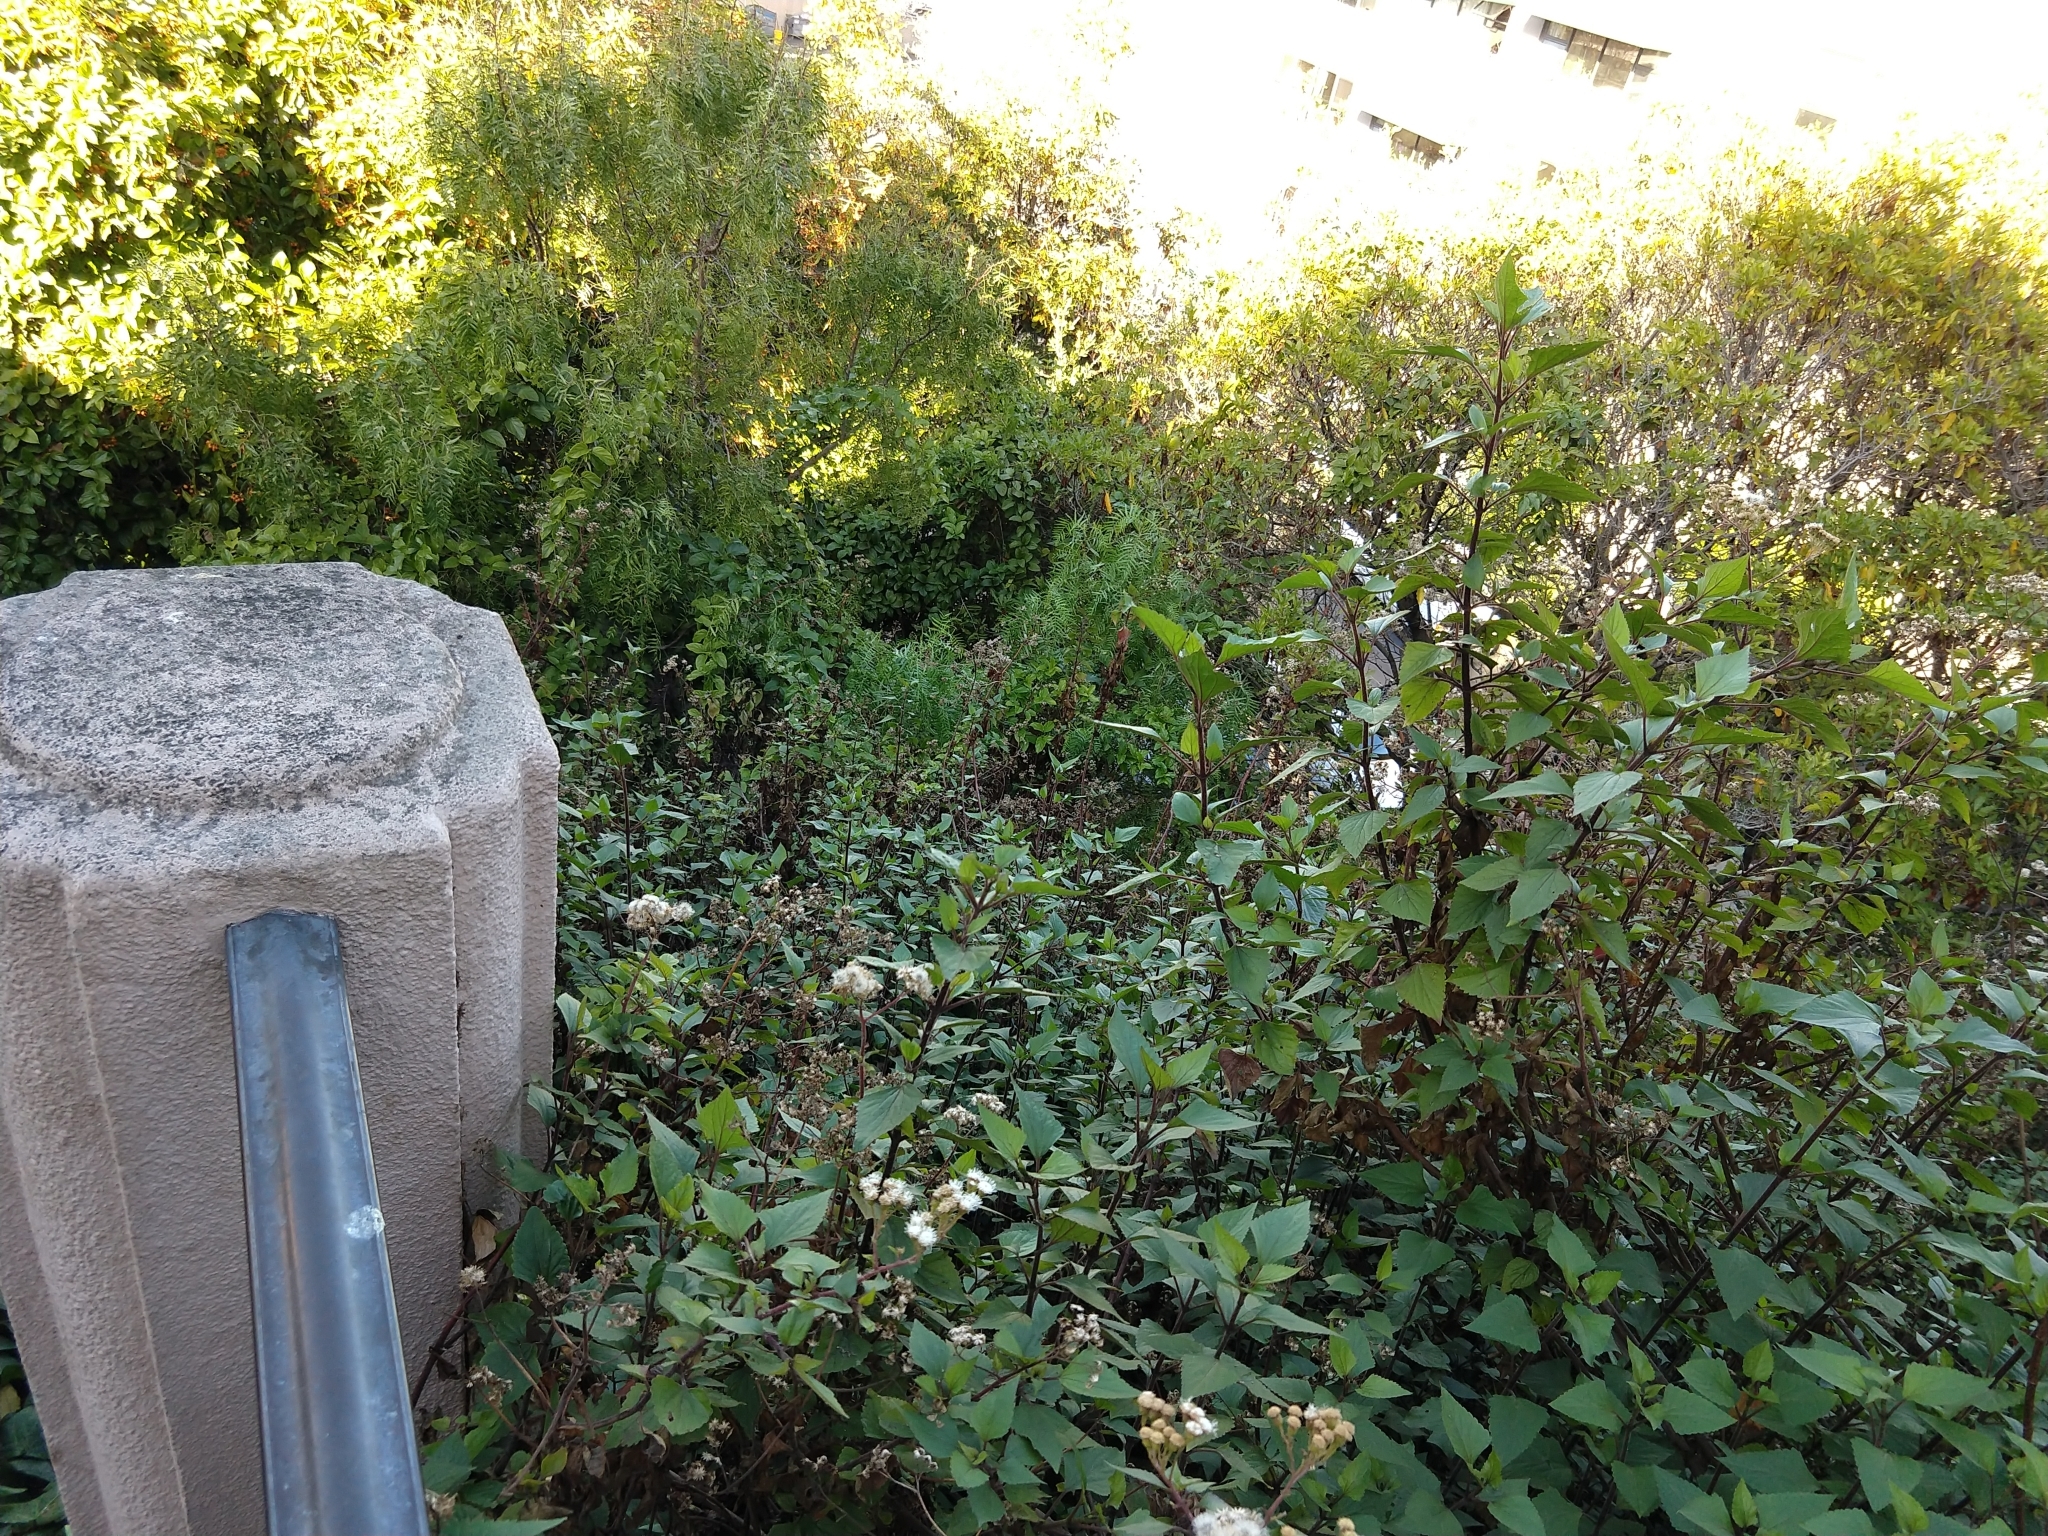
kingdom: Plantae
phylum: Tracheophyta
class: Magnoliopsida
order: Asterales
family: Asteraceae
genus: Ageratina
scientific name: Ageratina adenophora
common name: Sticky snakeroot
